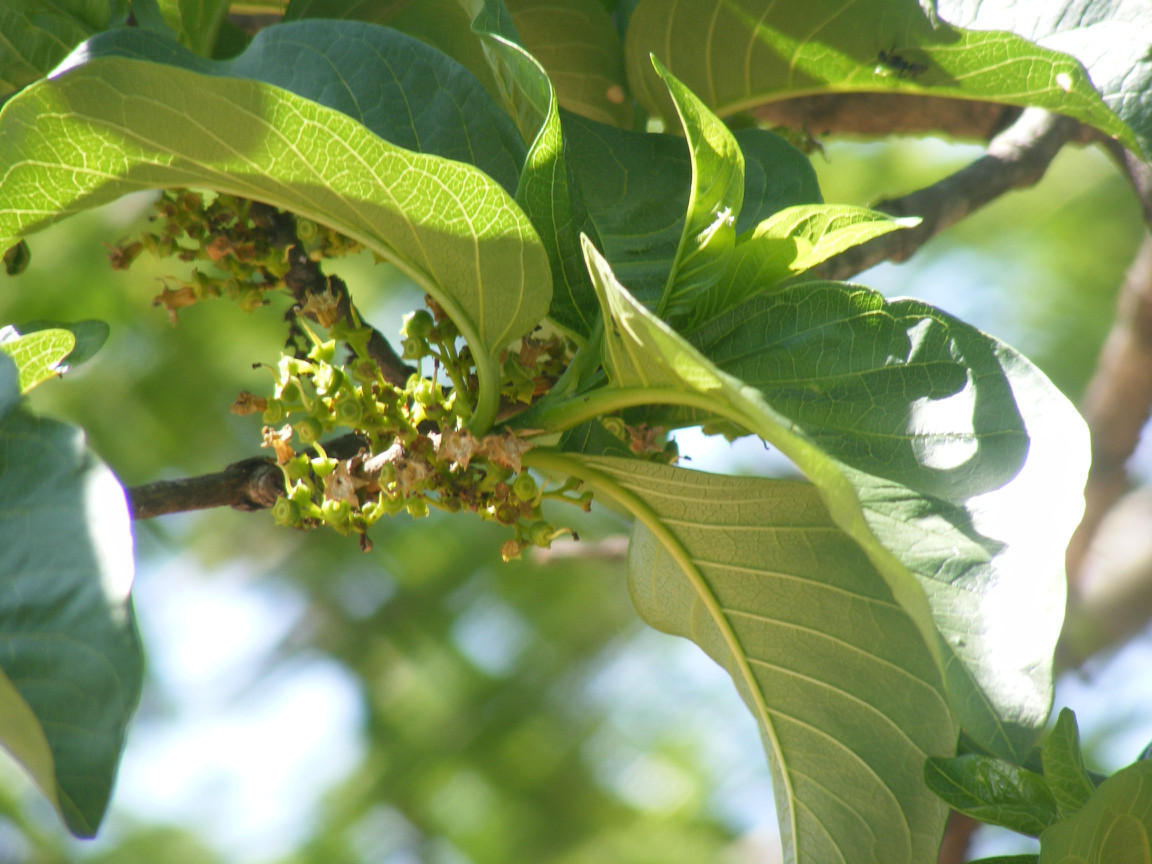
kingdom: Plantae
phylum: Tracheophyta
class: Magnoliopsida
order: Gentianales
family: Rubiaceae
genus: Vangueria
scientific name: Vangueria madagascariensis
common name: Smooth wild-medlar
